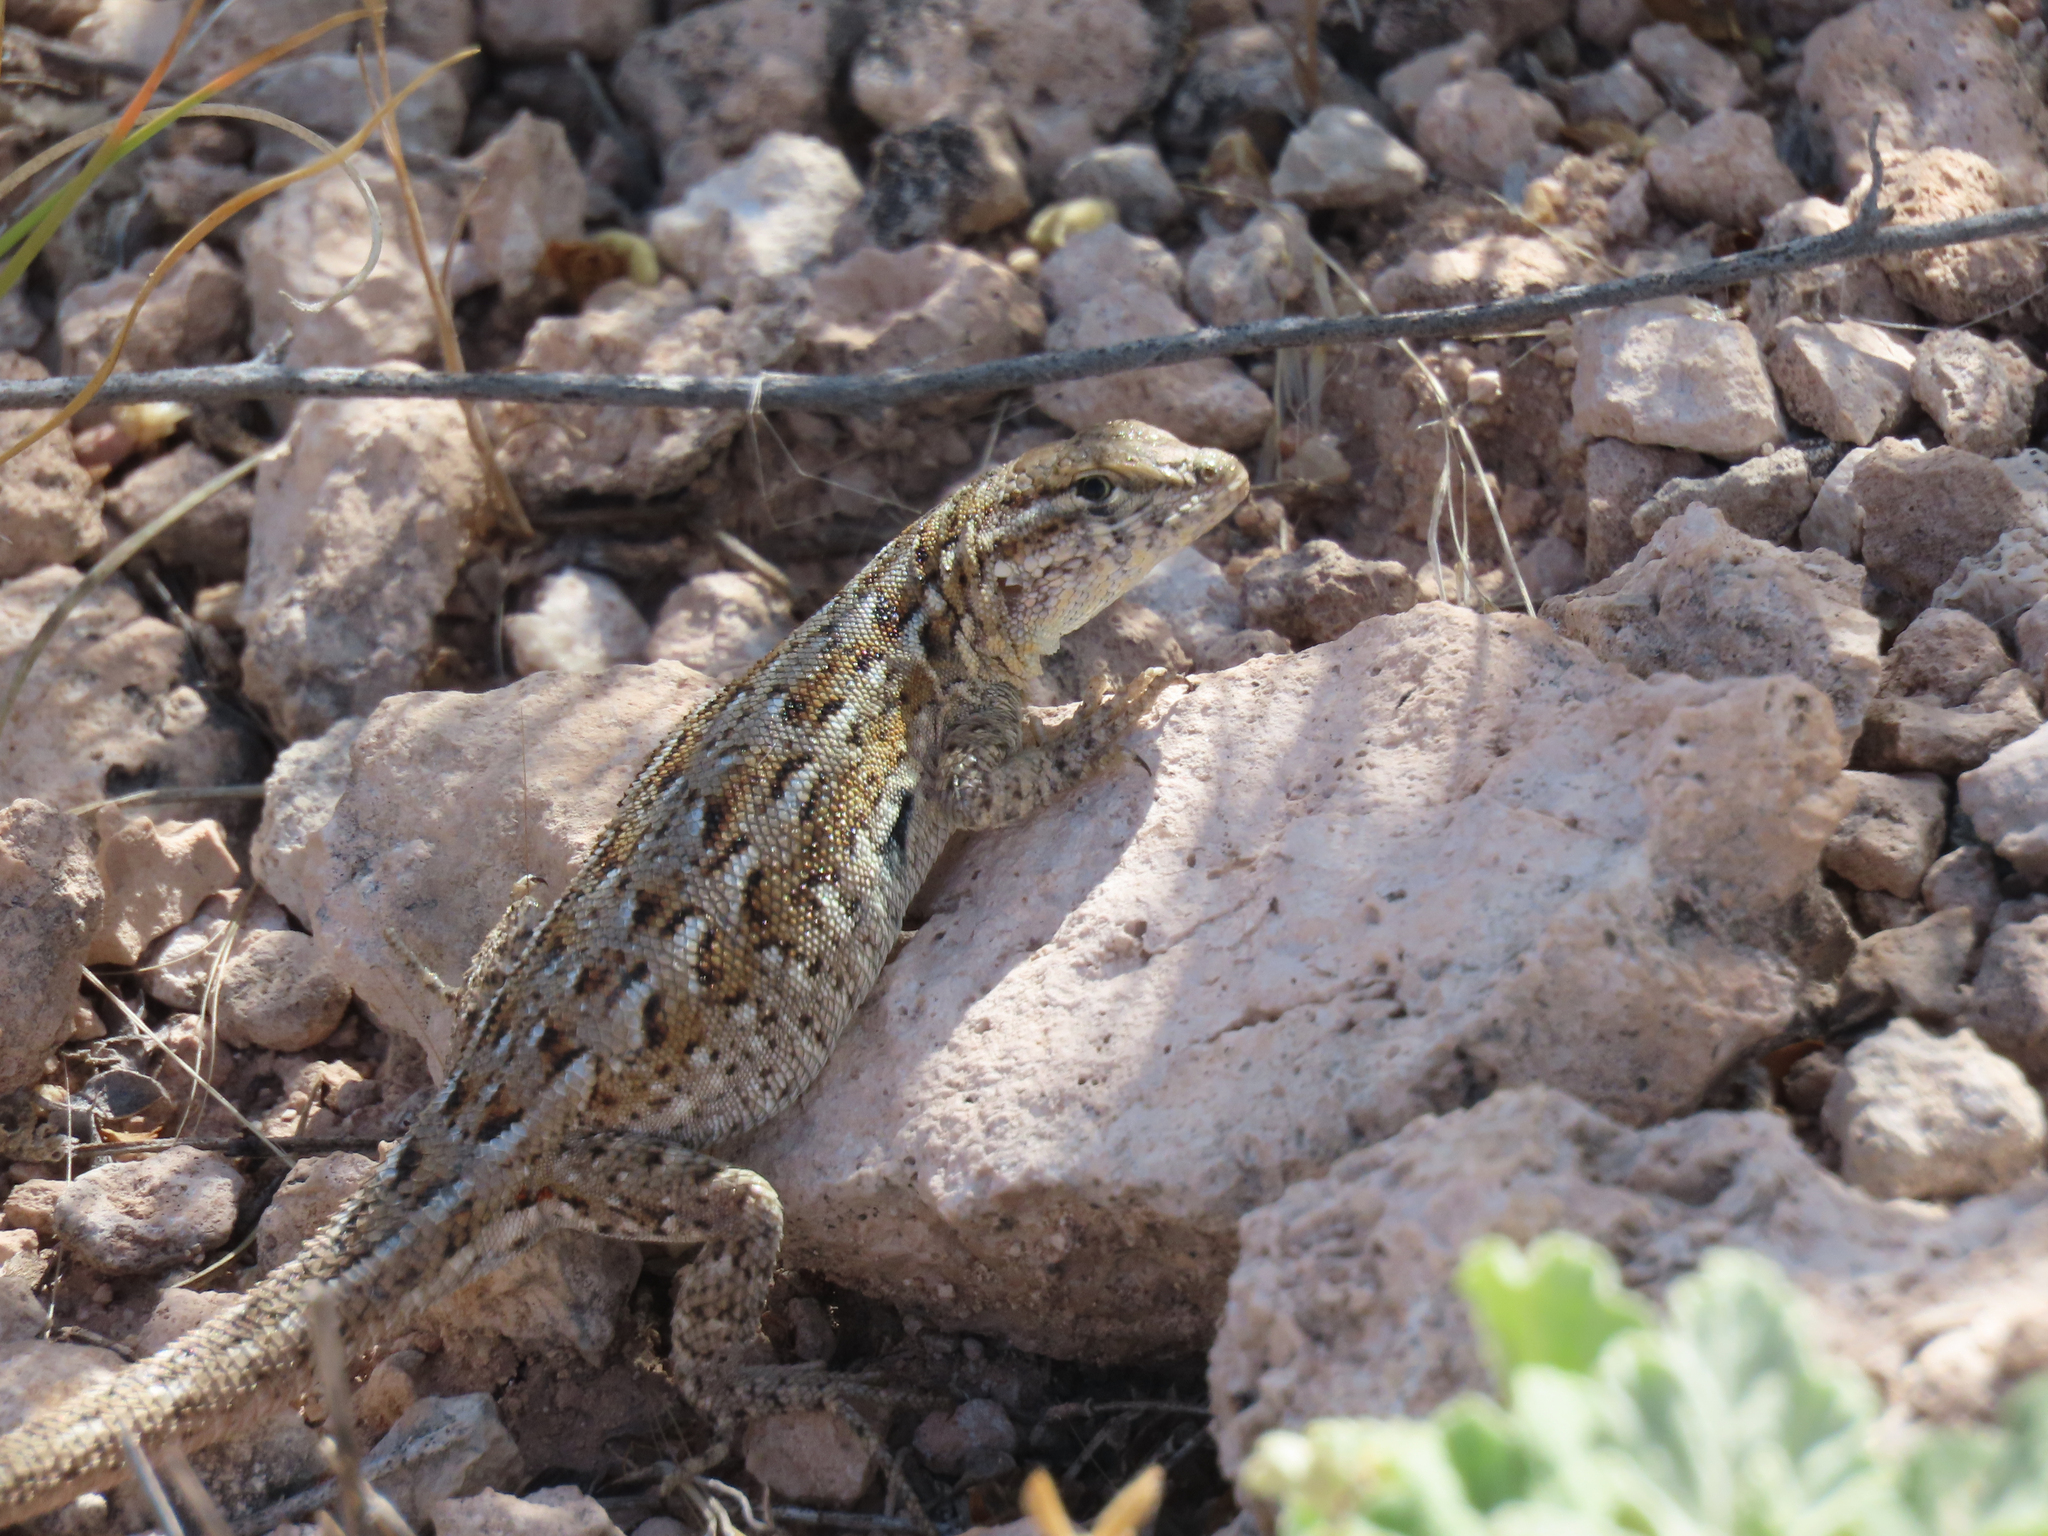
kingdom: Animalia
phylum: Chordata
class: Squamata
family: Phrynosomatidae
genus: Uta
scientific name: Uta stansburiana
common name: Side-blotched lizard
